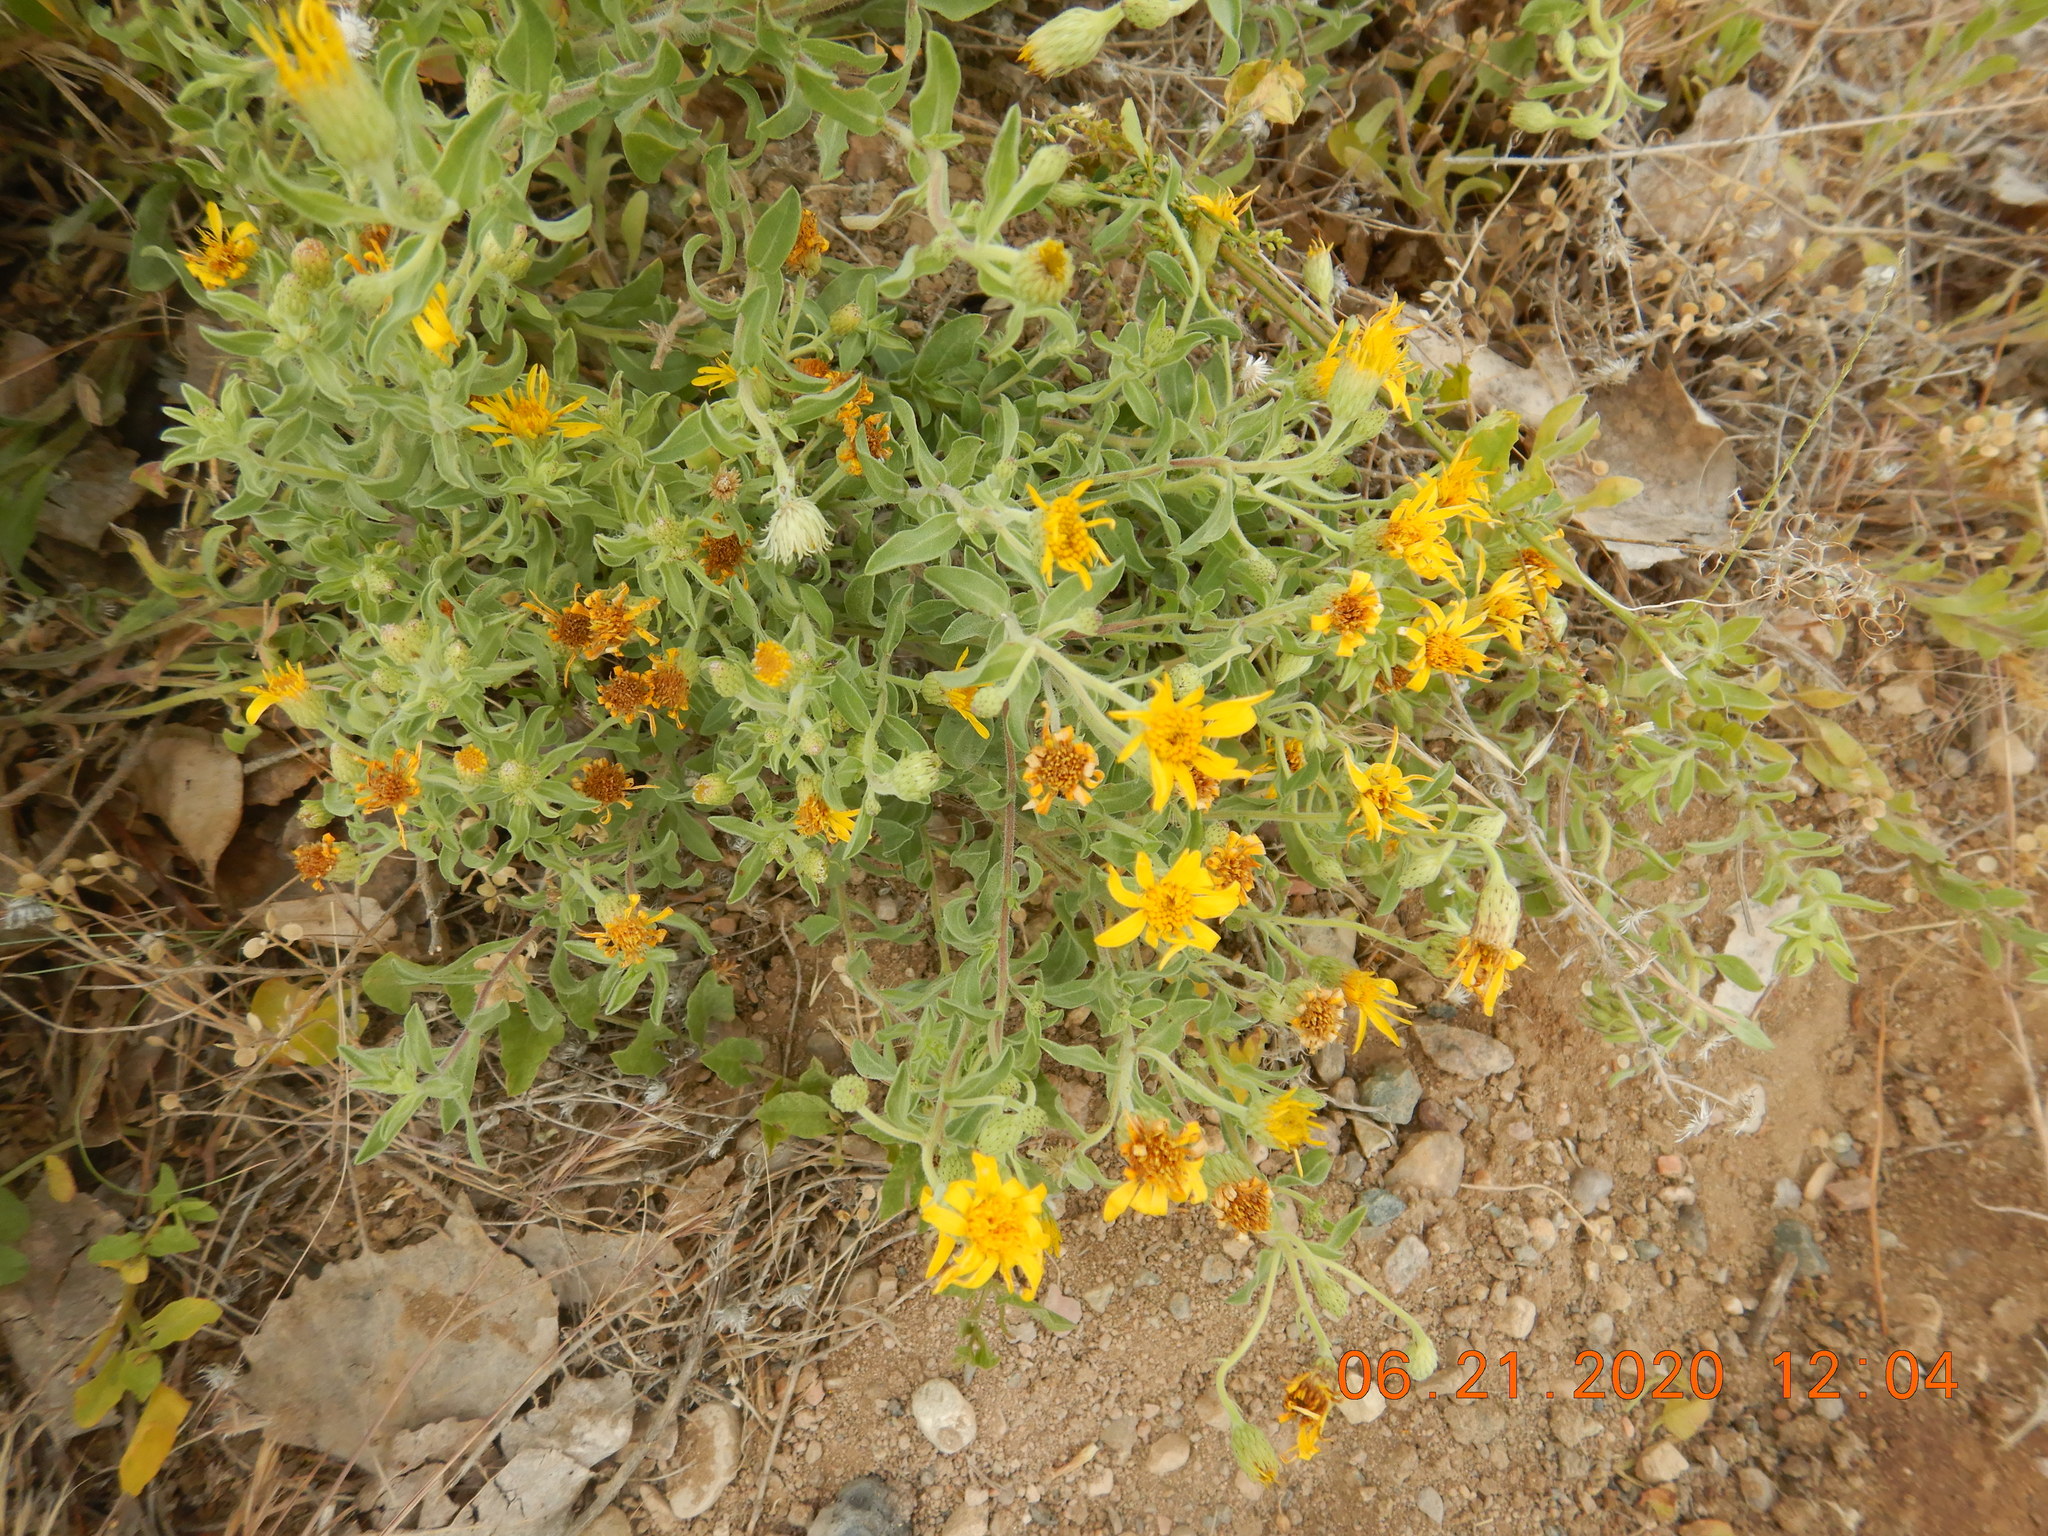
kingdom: Plantae
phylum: Tracheophyta
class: Magnoliopsida
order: Asterales
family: Asteraceae
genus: Heterotheca
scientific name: Heterotheca villosa
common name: Hairy false goldenaster
